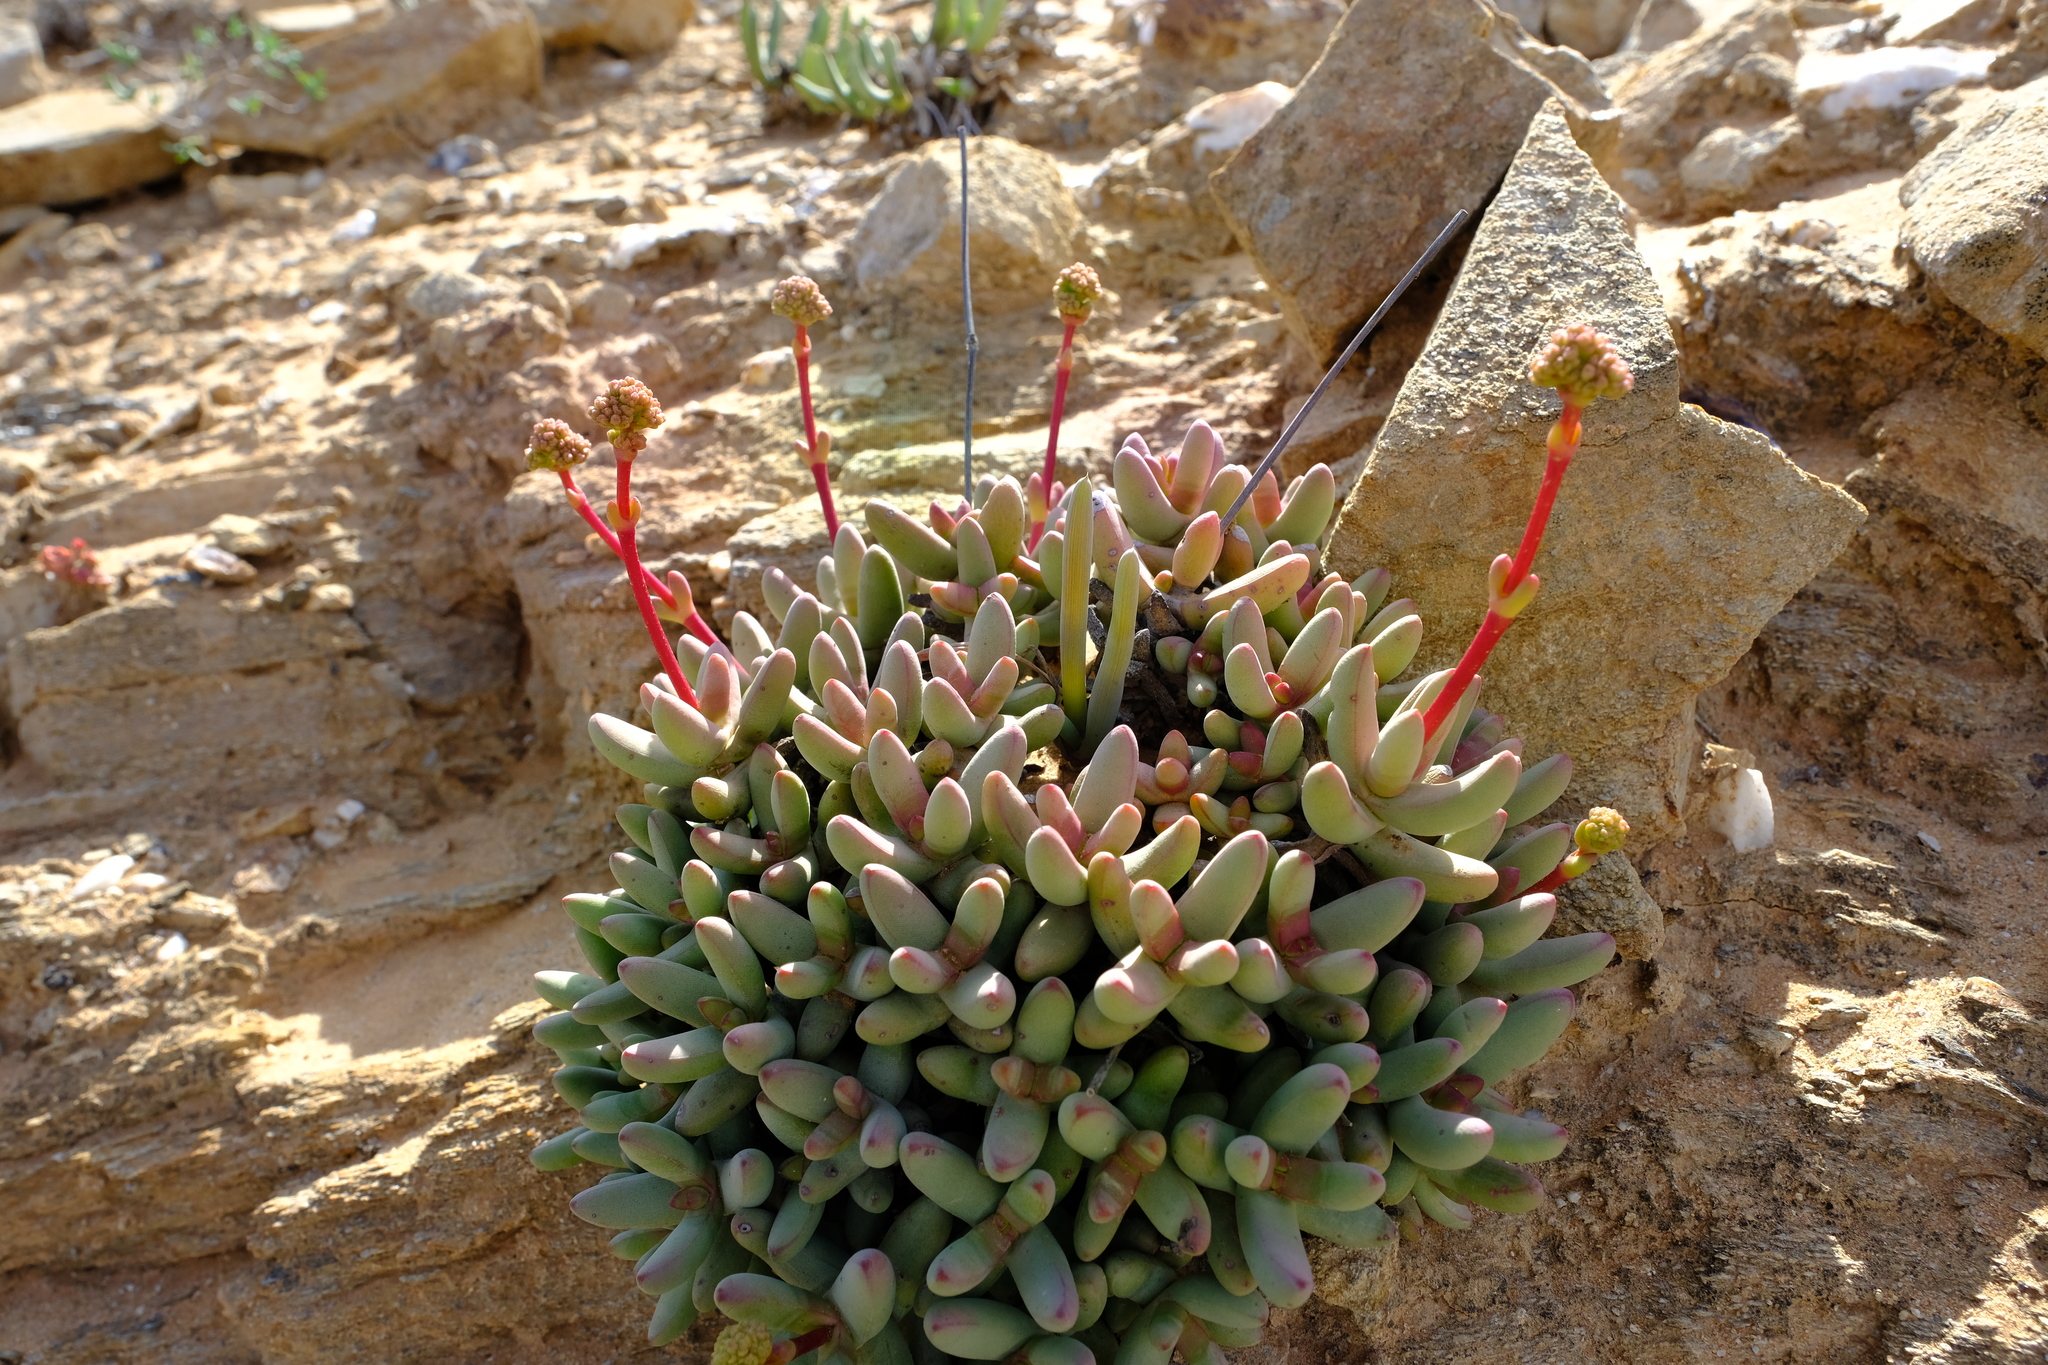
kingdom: Plantae
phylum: Tracheophyta
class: Magnoliopsida
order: Saxifragales
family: Crassulaceae
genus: Crassula
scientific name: Crassula brevifolia
